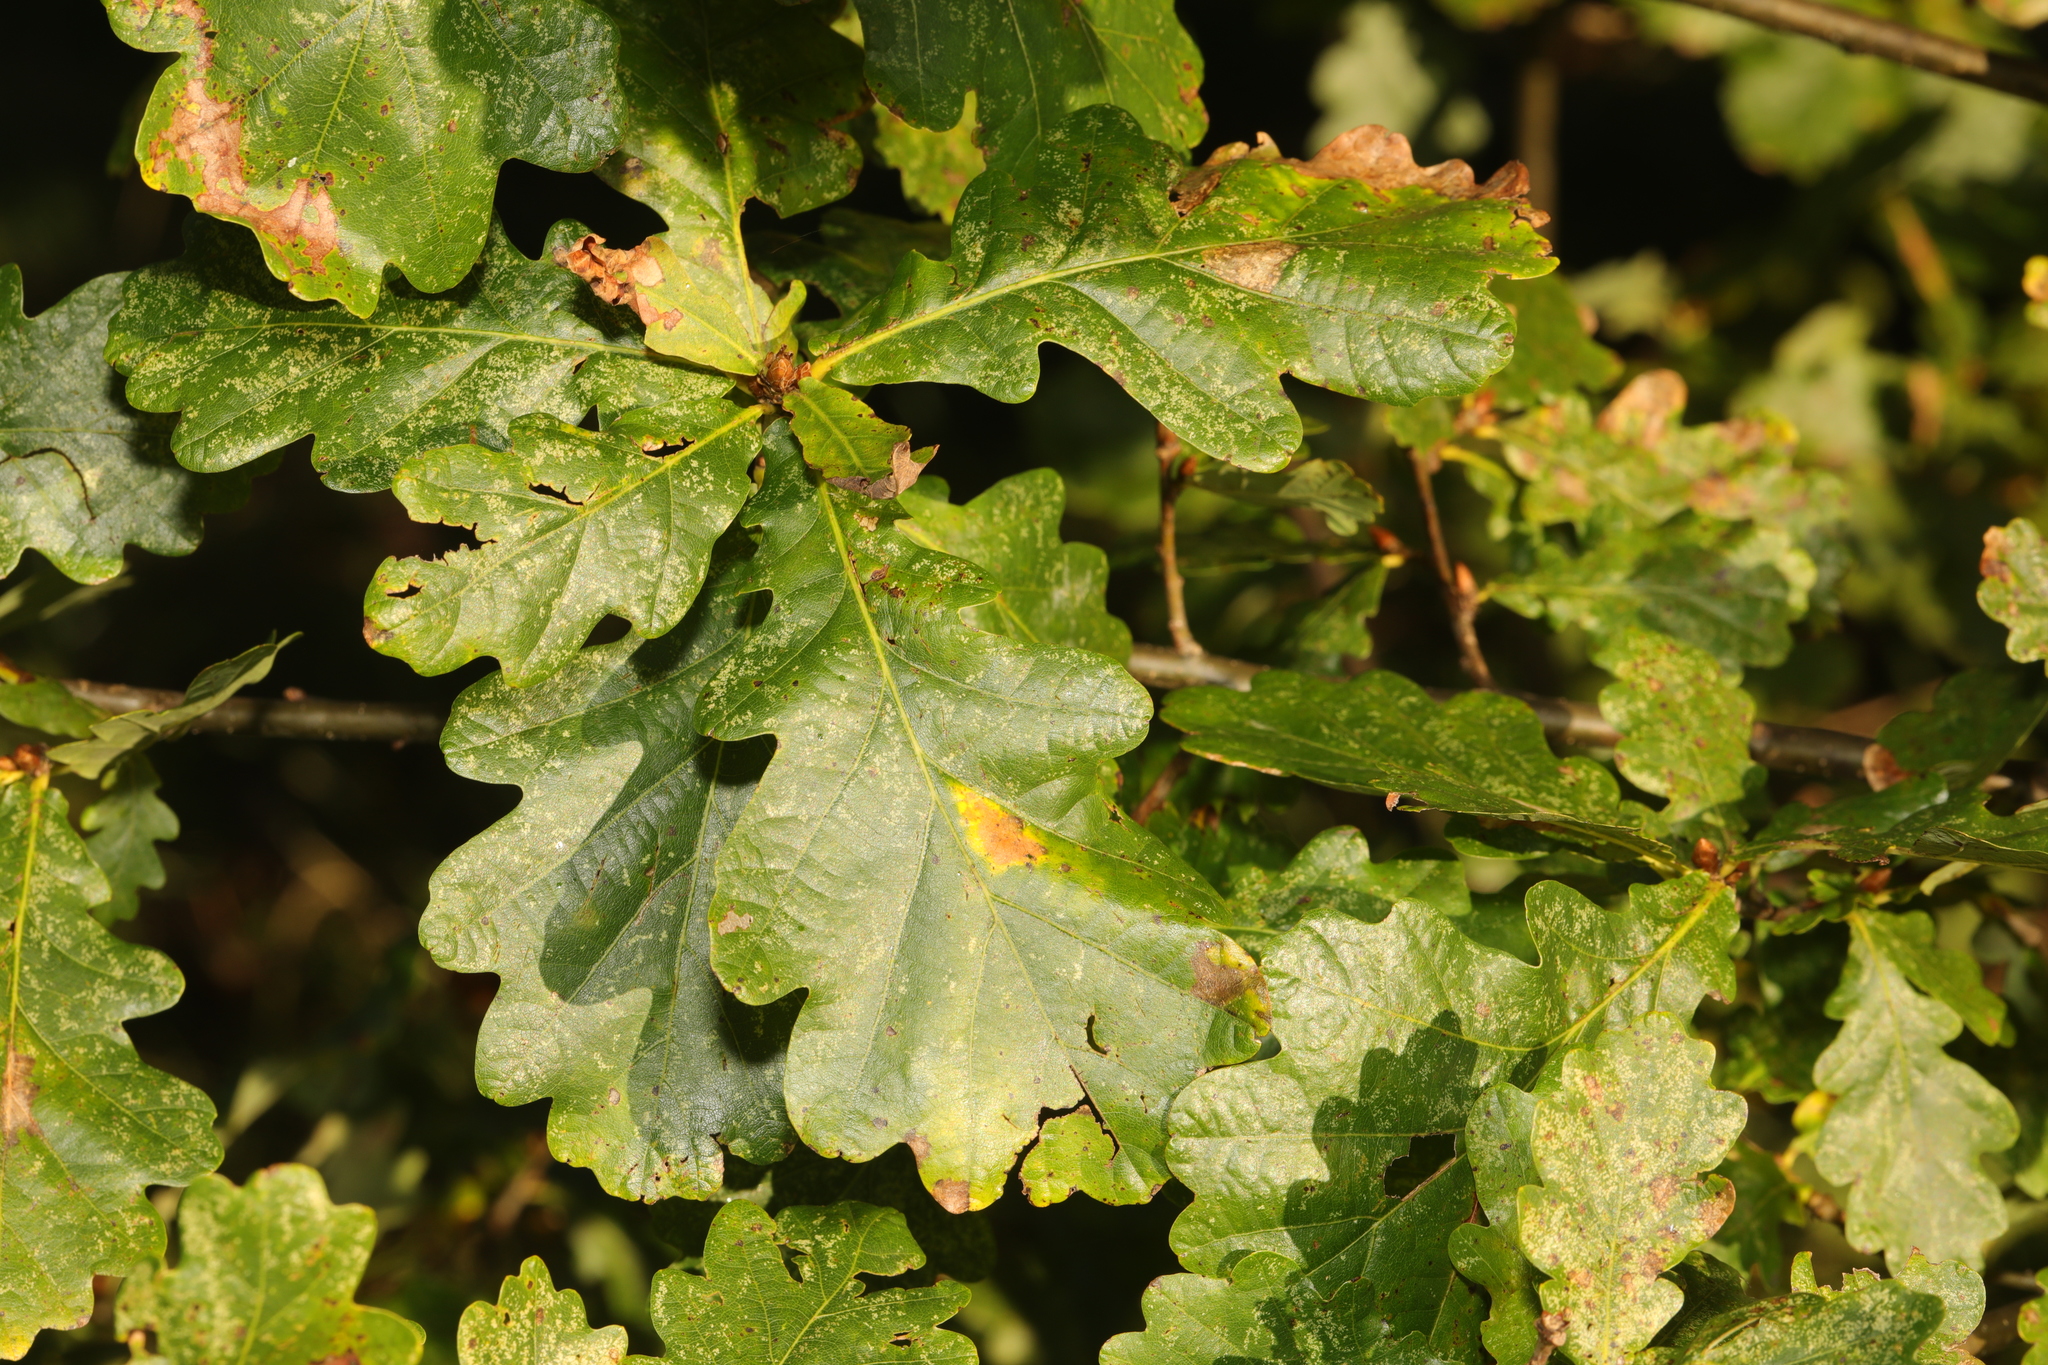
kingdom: Plantae
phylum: Tracheophyta
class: Magnoliopsida
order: Fagales
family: Fagaceae
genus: Quercus
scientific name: Quercus robur
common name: Pedunculate oak
